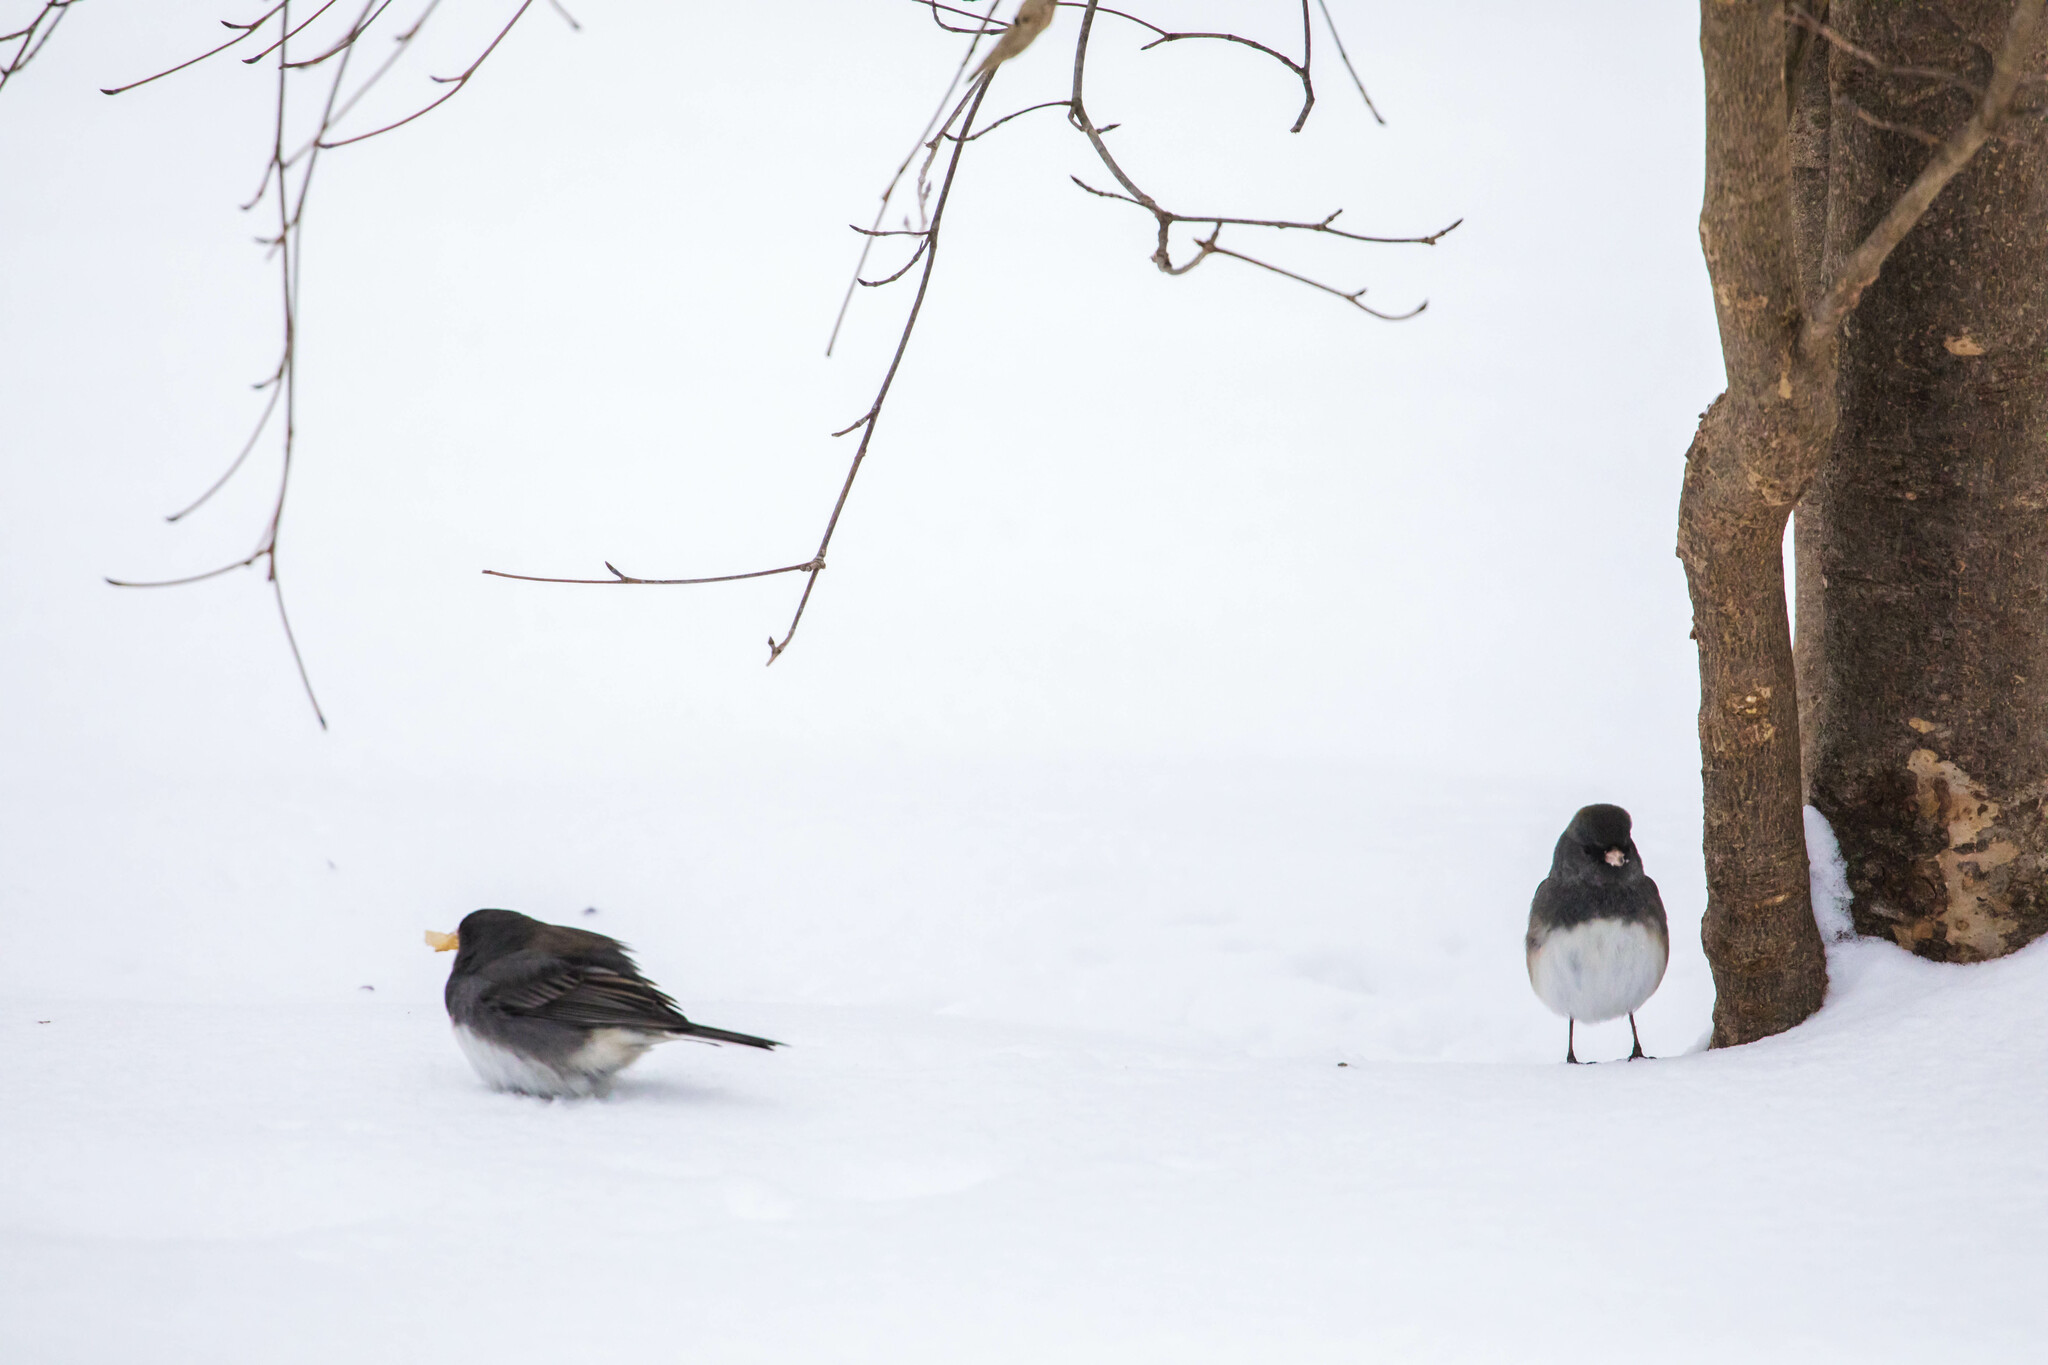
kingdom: Animalia
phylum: Chordata
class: Aves
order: Passeriformes
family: Passerellidae
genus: Junco
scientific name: Junco hyemalis
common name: Dark-eyed junco
